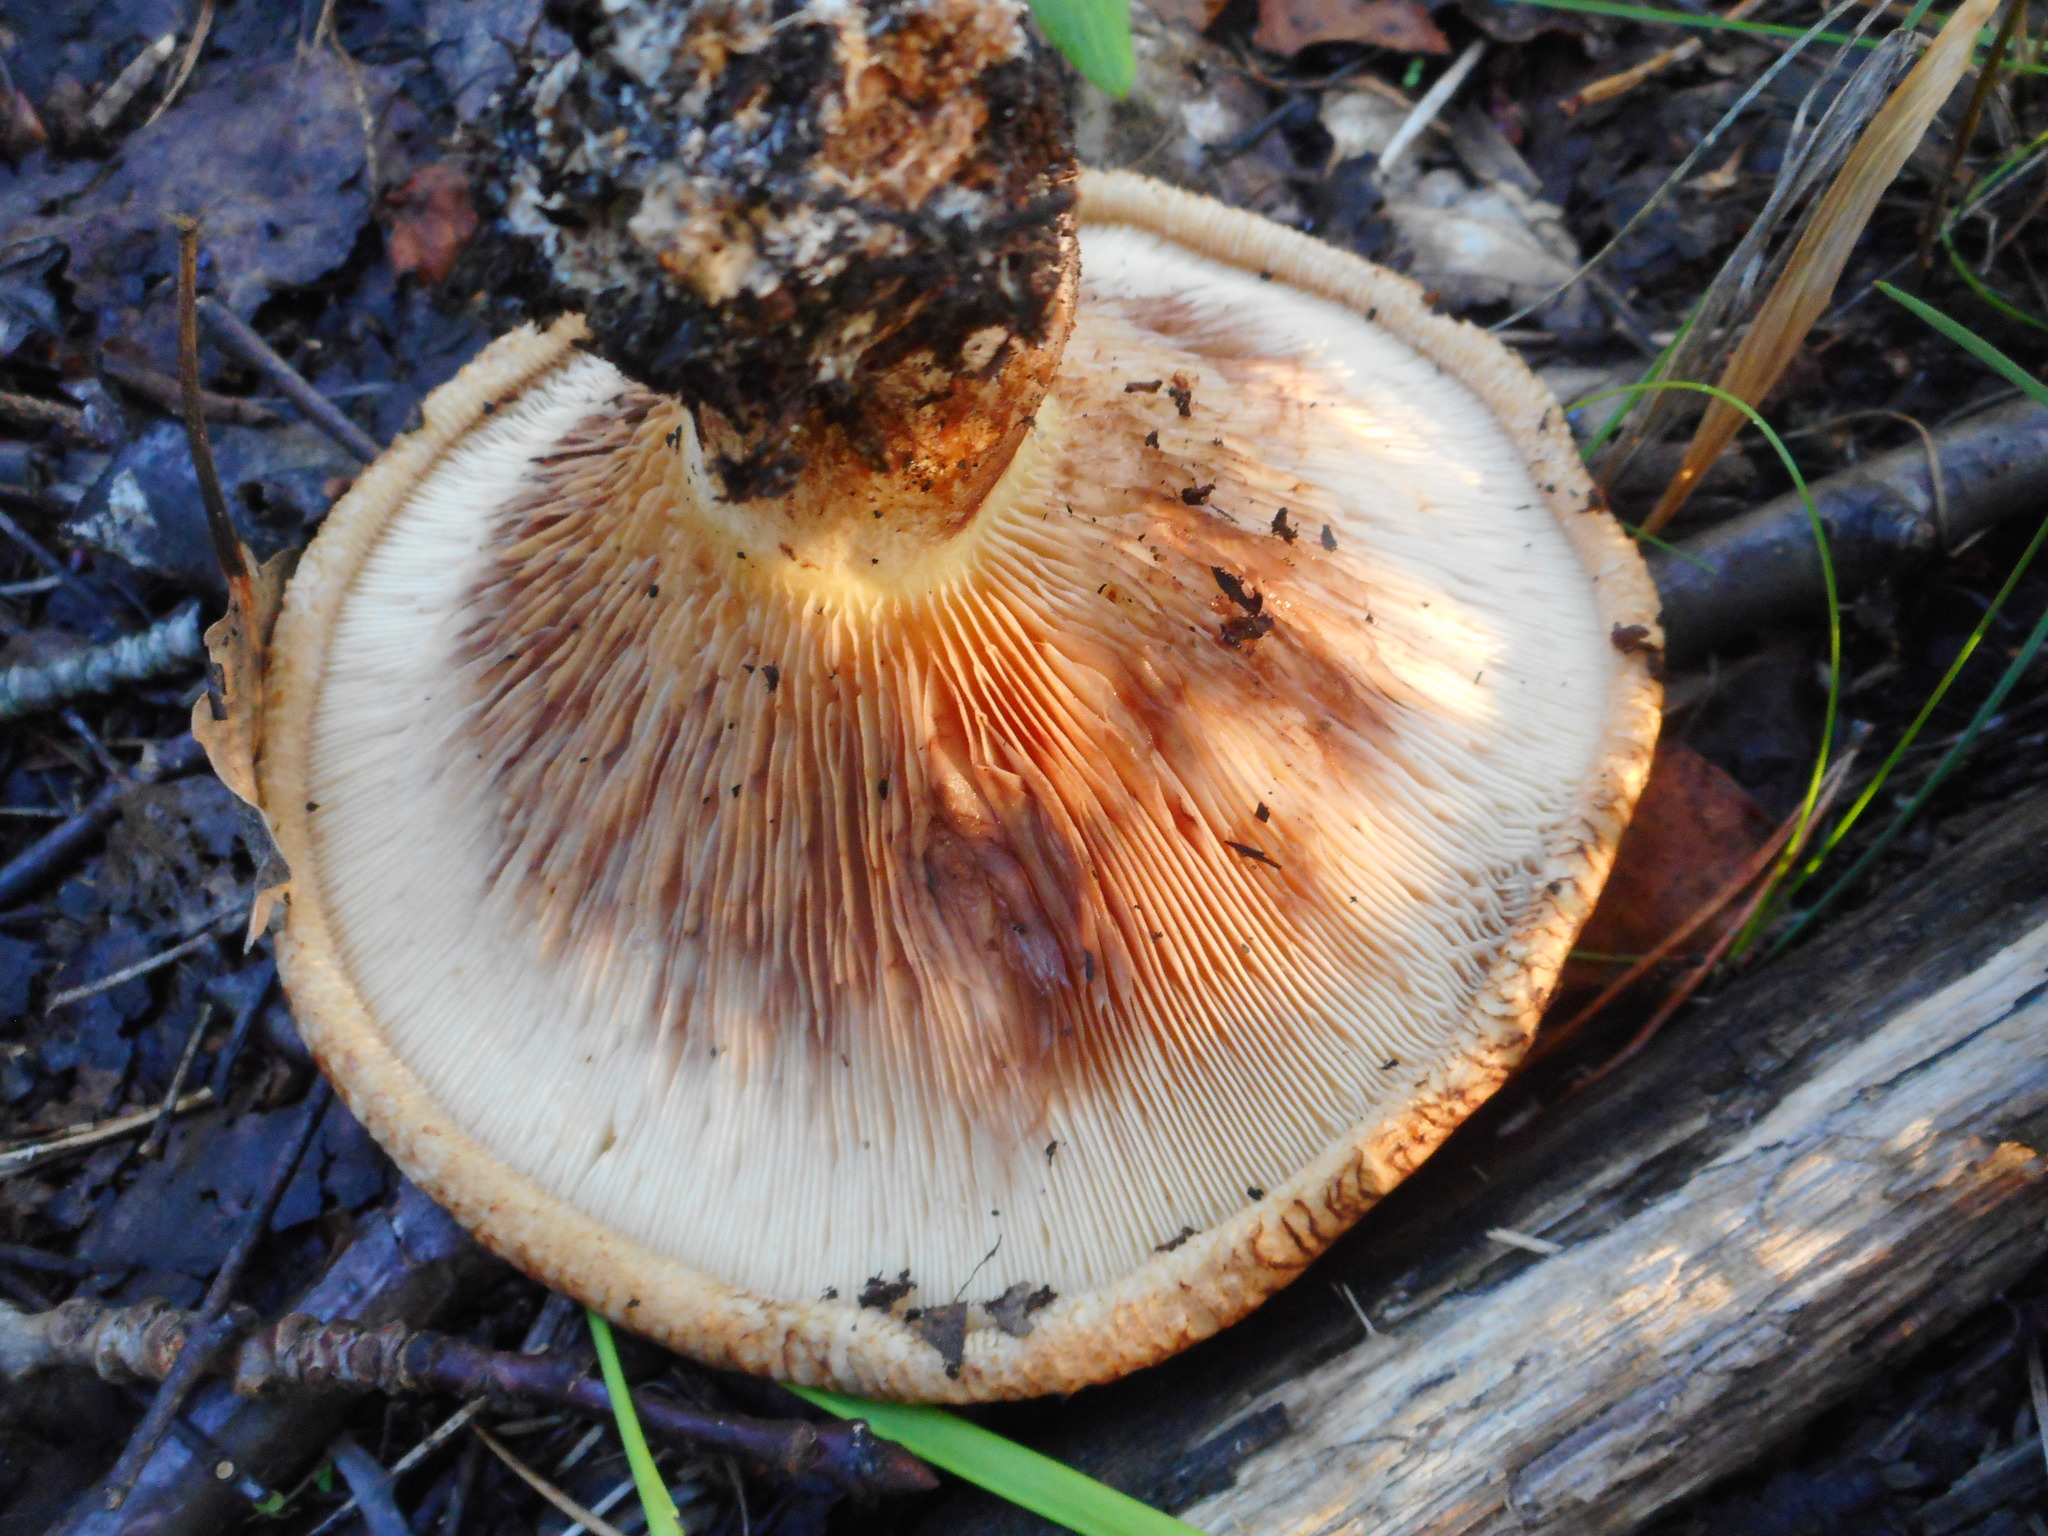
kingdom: Fungi
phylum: Basidiomycota
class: Agaricomycetes
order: Boletales
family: Paxillaceae
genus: Paxillus
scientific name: Paxillus involutus
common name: Brown roll rim
